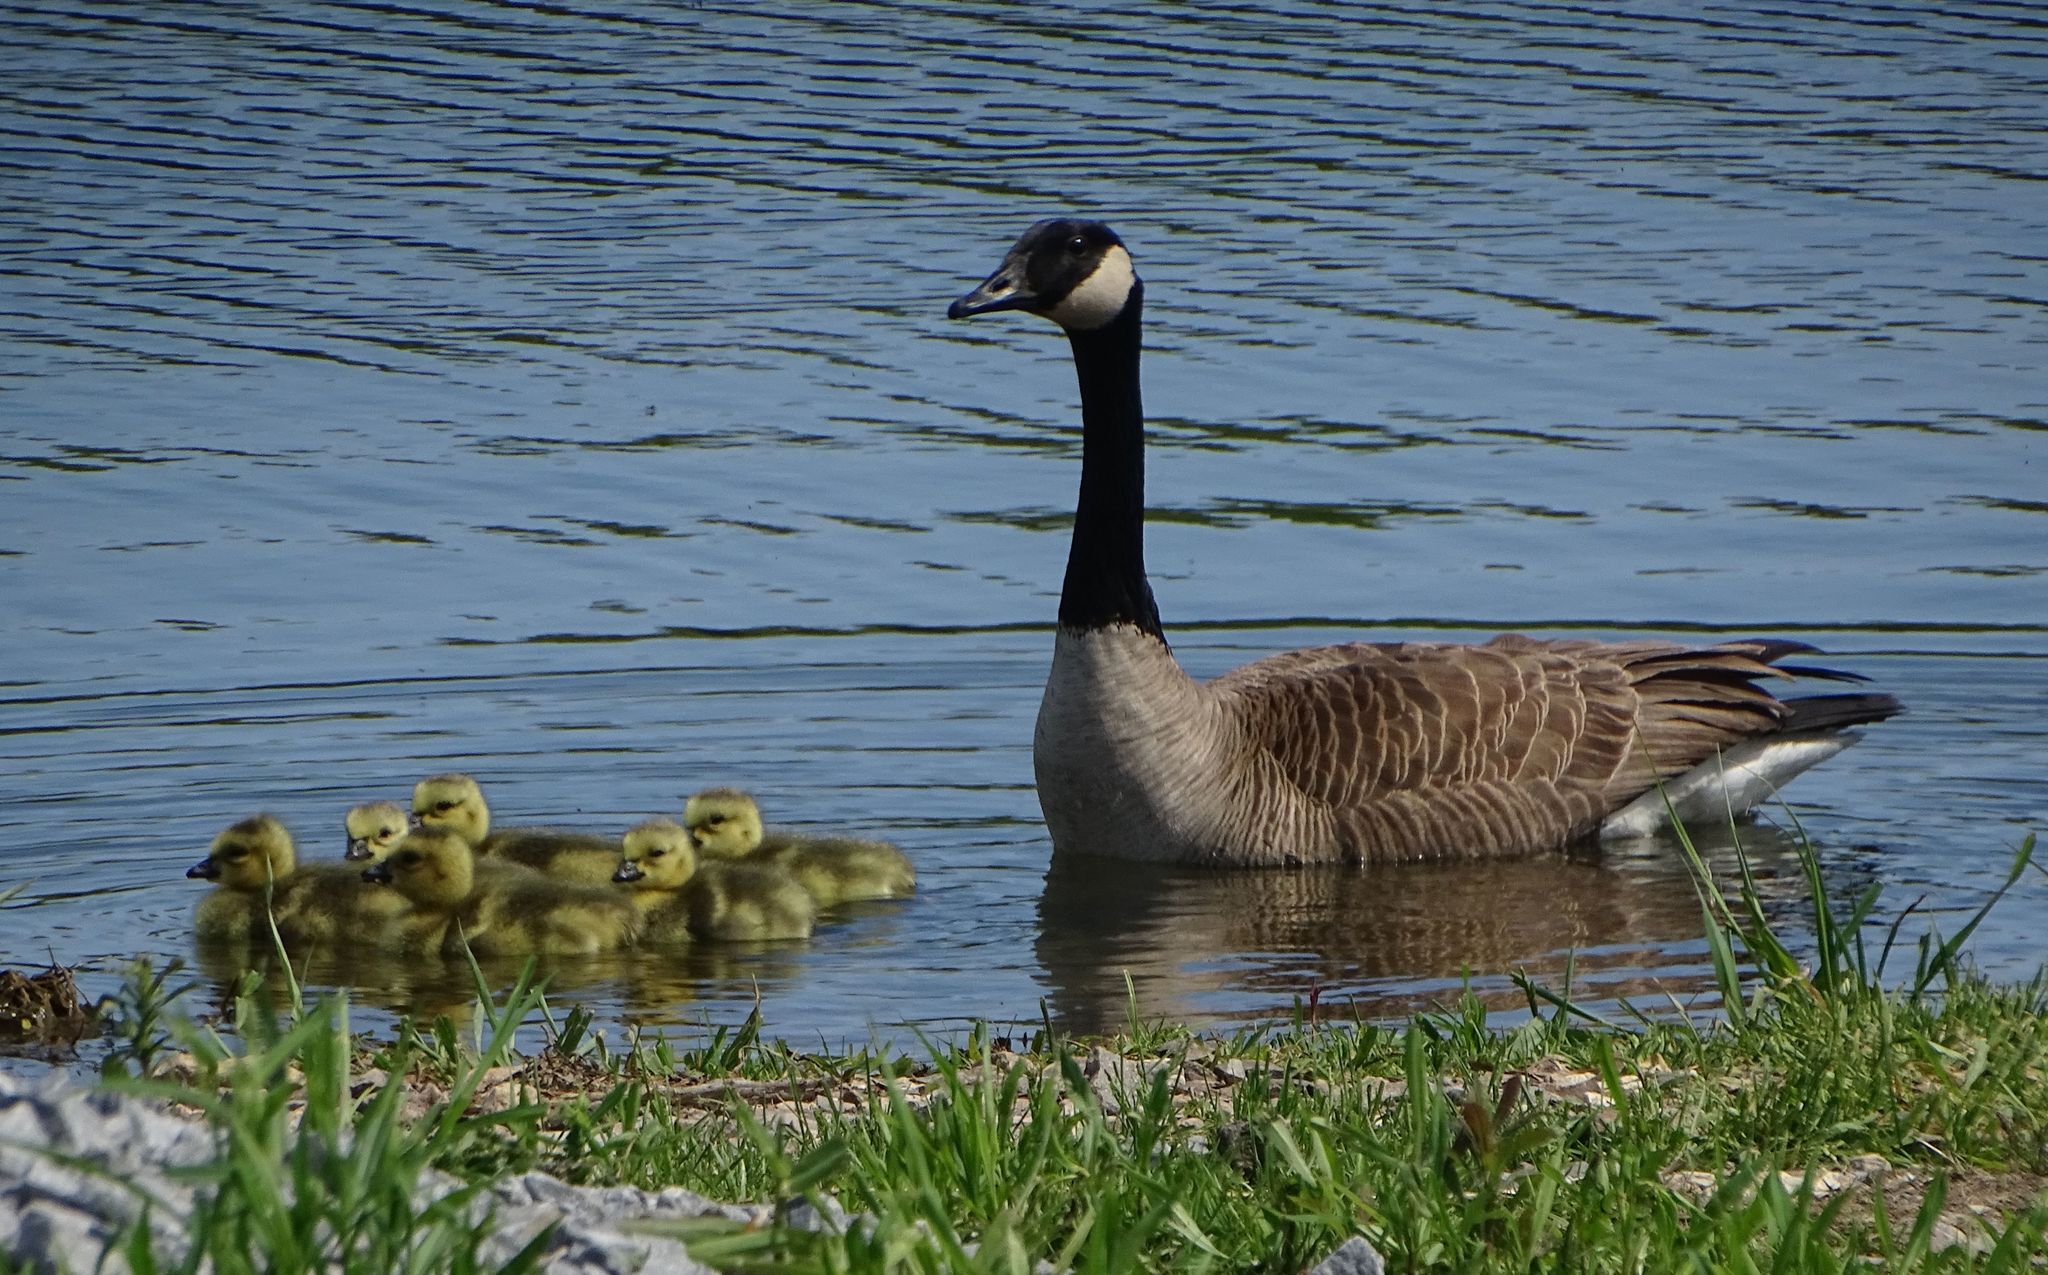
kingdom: Animalia
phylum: Chordata
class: Aves
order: Anseriformes
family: Anatidae
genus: Branta
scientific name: Branta canadensis
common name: Canada goose
